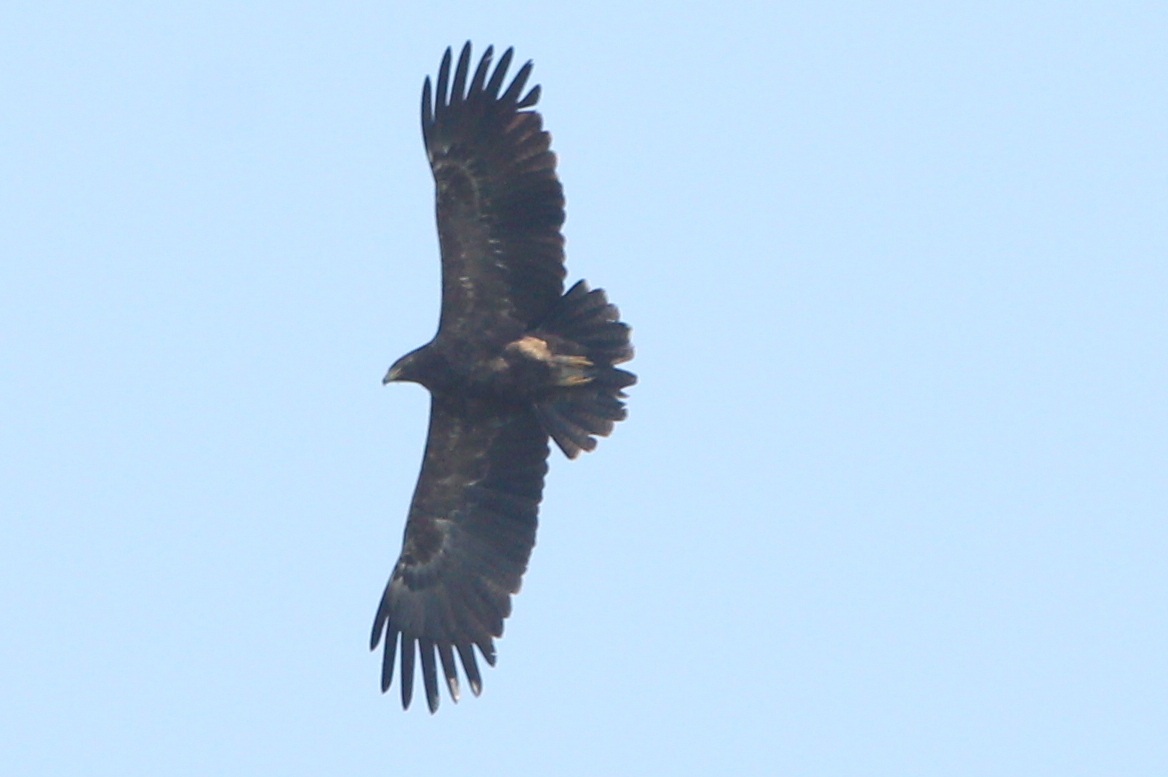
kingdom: Animalia
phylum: Chordata
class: Aves
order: Accipitriformes
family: Accipitridae
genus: Aquila
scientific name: Aquila pomarina
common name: Lesser spotted eagle
